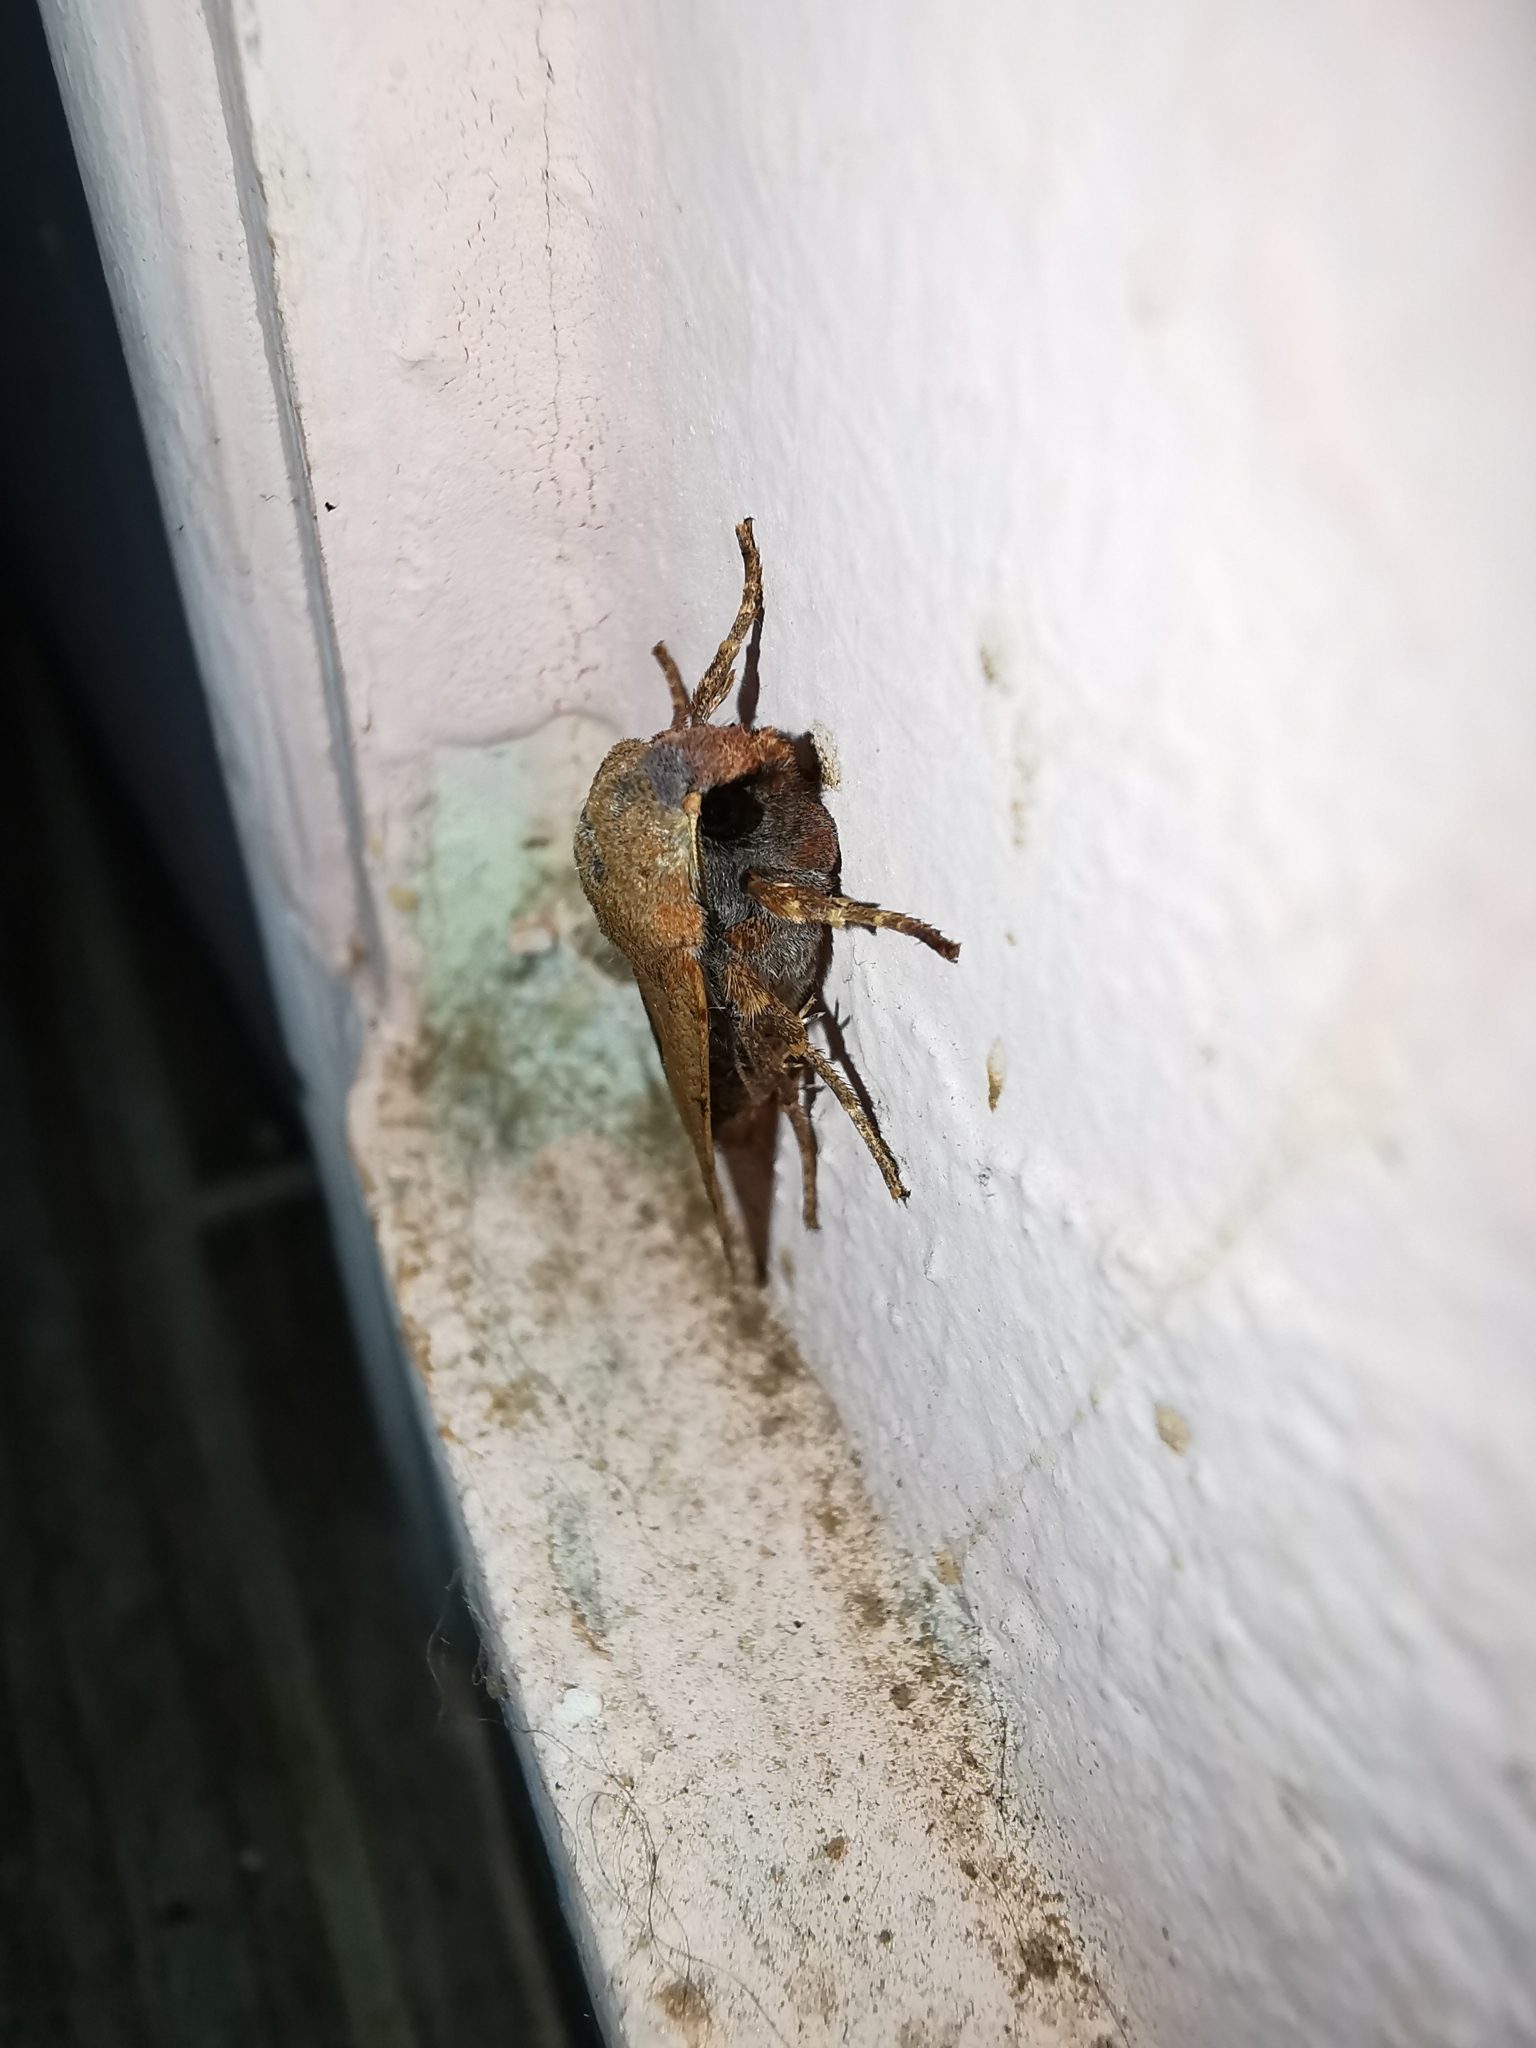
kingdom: Animalia
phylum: Arthropoda
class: Insecta
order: Lepidoptera
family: Noctuidae
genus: Agrochola
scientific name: Agrochola lychnidis
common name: Beaded chestnut
